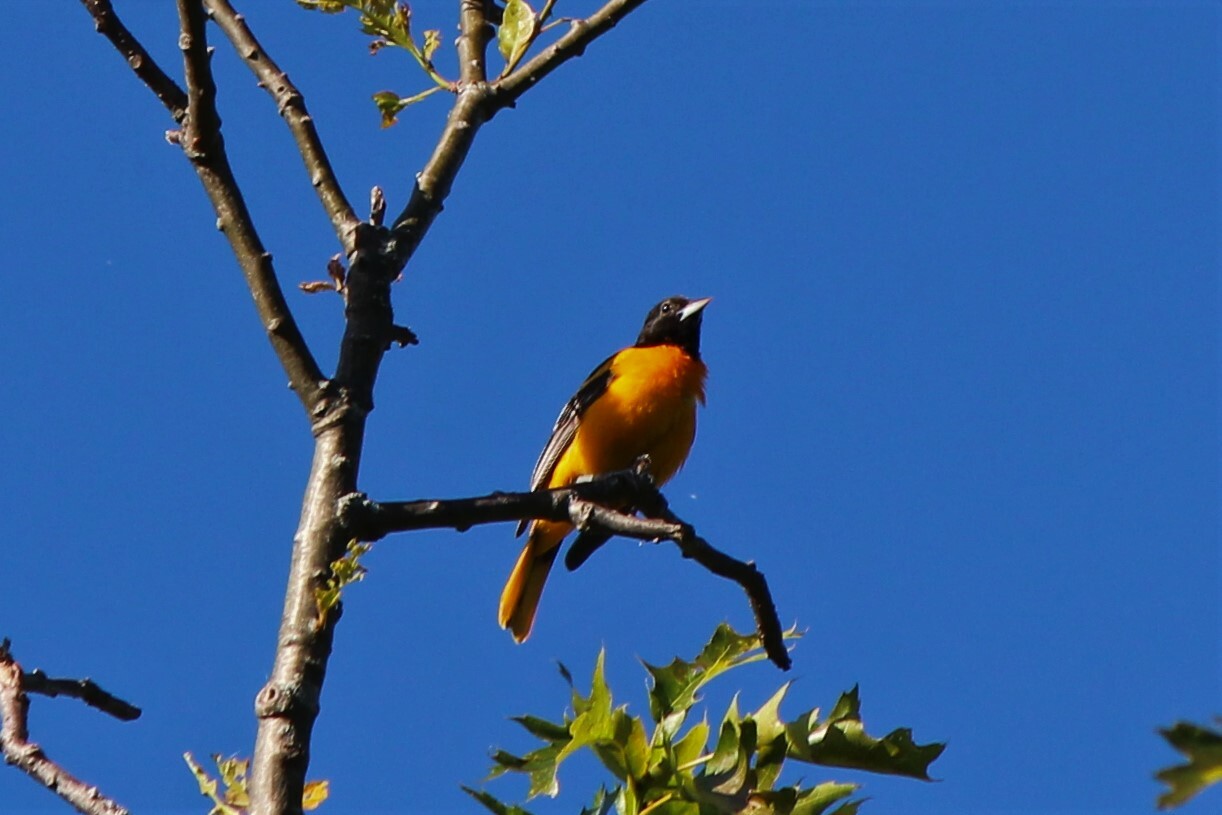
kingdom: Animalia
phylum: Chordata
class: Aves
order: Passeriformes
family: Icteridae
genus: Icterus
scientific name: Icterus galbula
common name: Baltimore oriole
